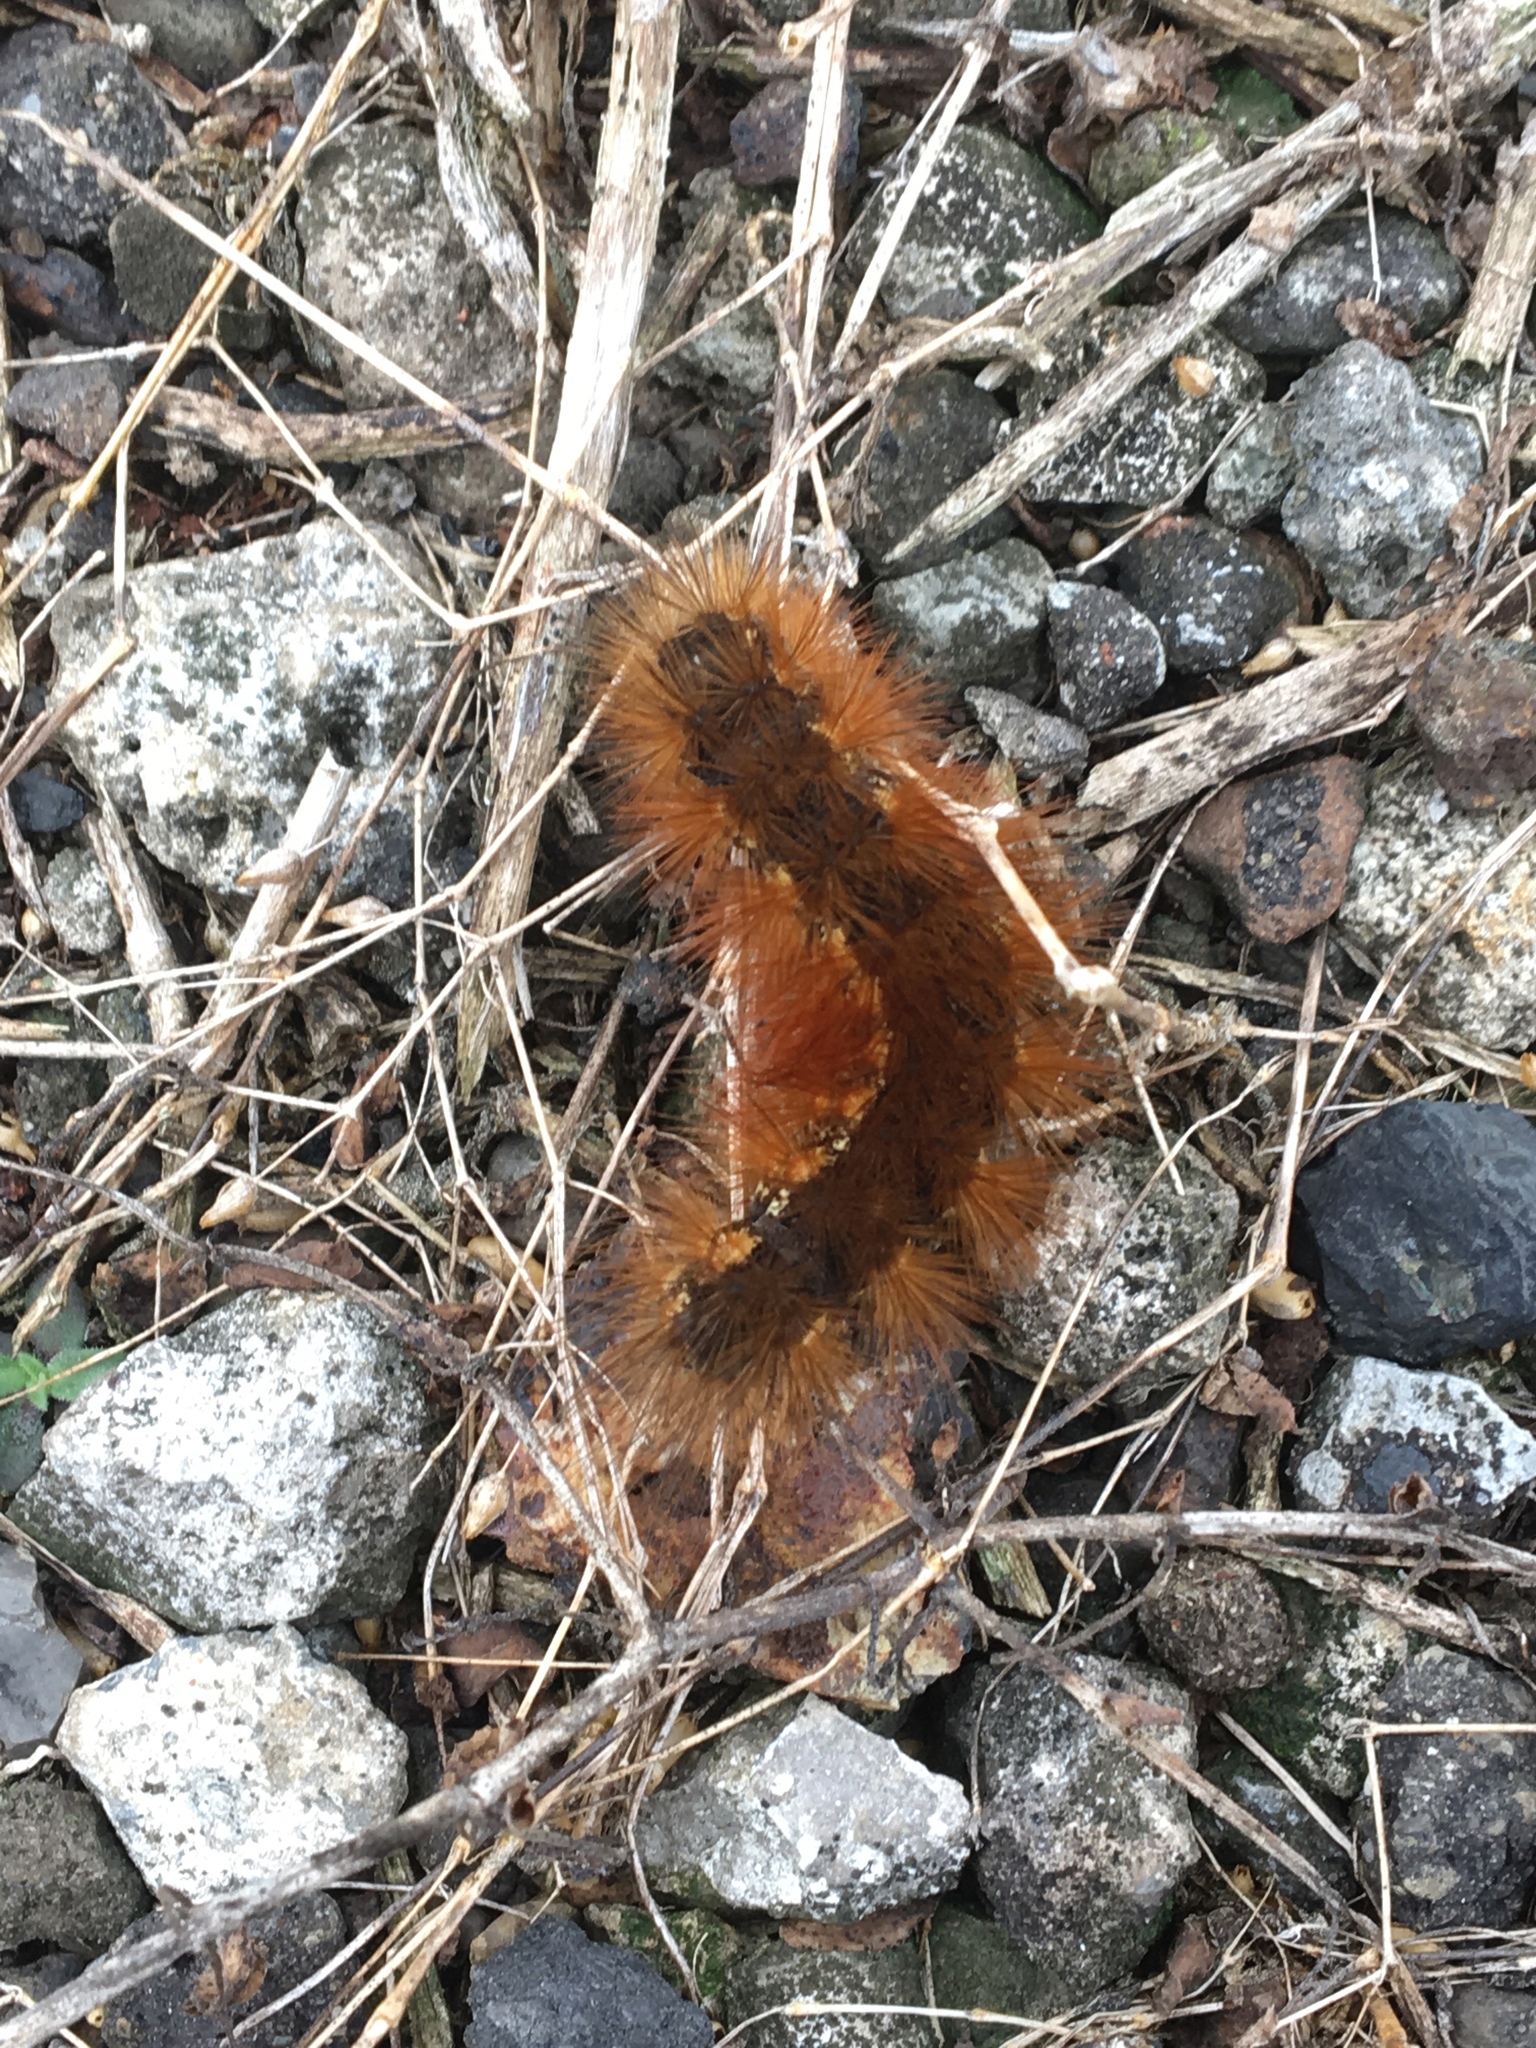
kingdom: Animalia
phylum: Arthropoda
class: Insecta
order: Lepidoptera
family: Erebidae
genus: Estigmene
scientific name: Estigmene acrea
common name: Salt marsh moth
